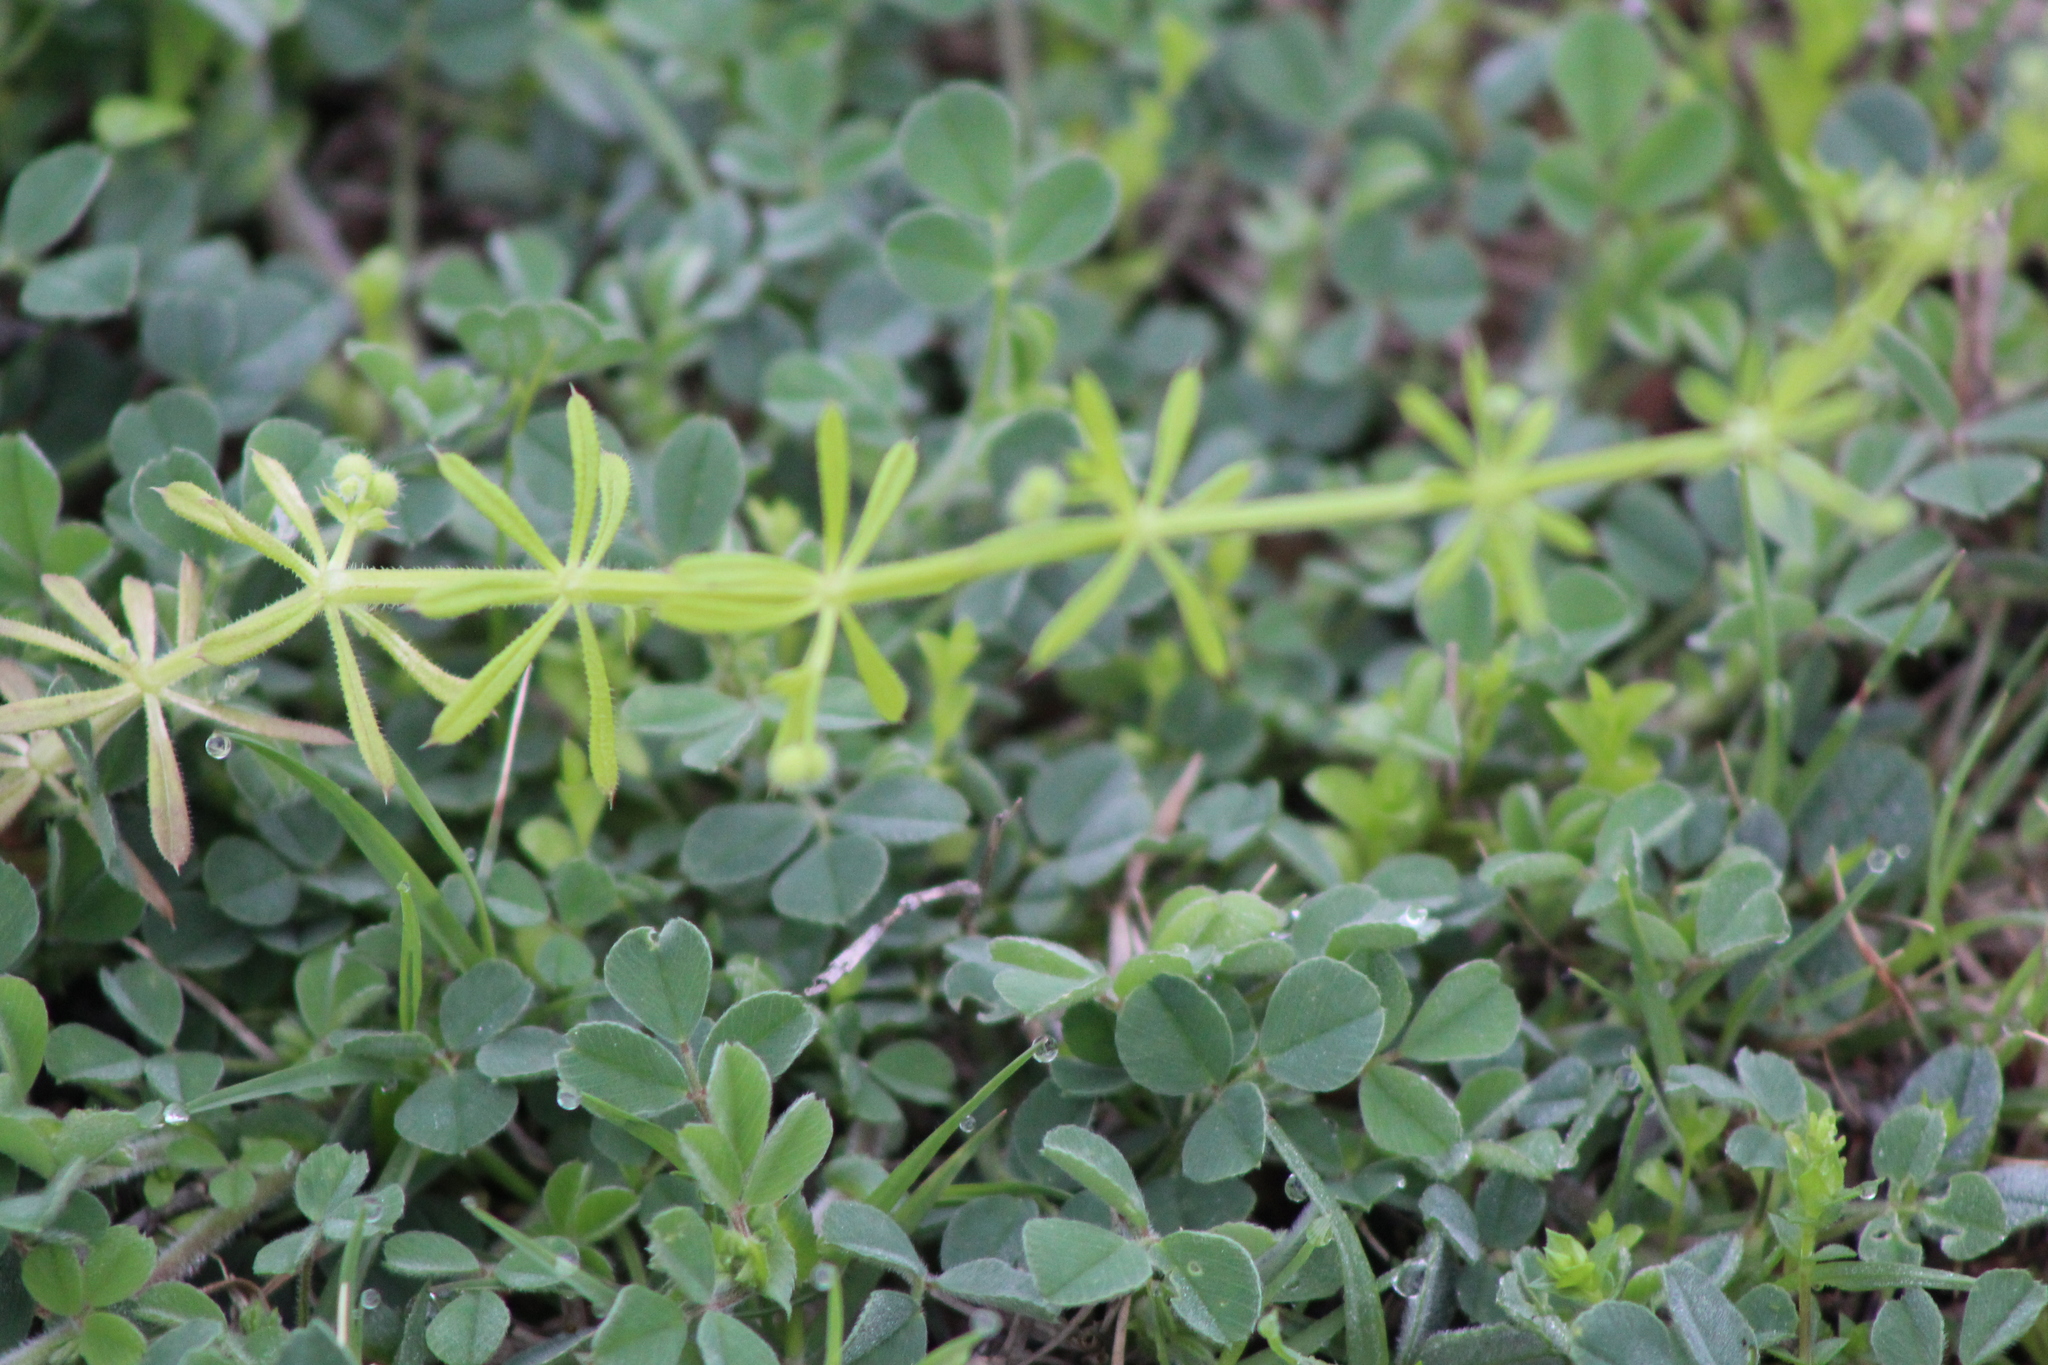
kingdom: Plantae
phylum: Tracheophyta
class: Magnoliopsida
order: Gentianales
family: Rubiaceae
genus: Galium
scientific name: Galium aparine
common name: Cleavers
